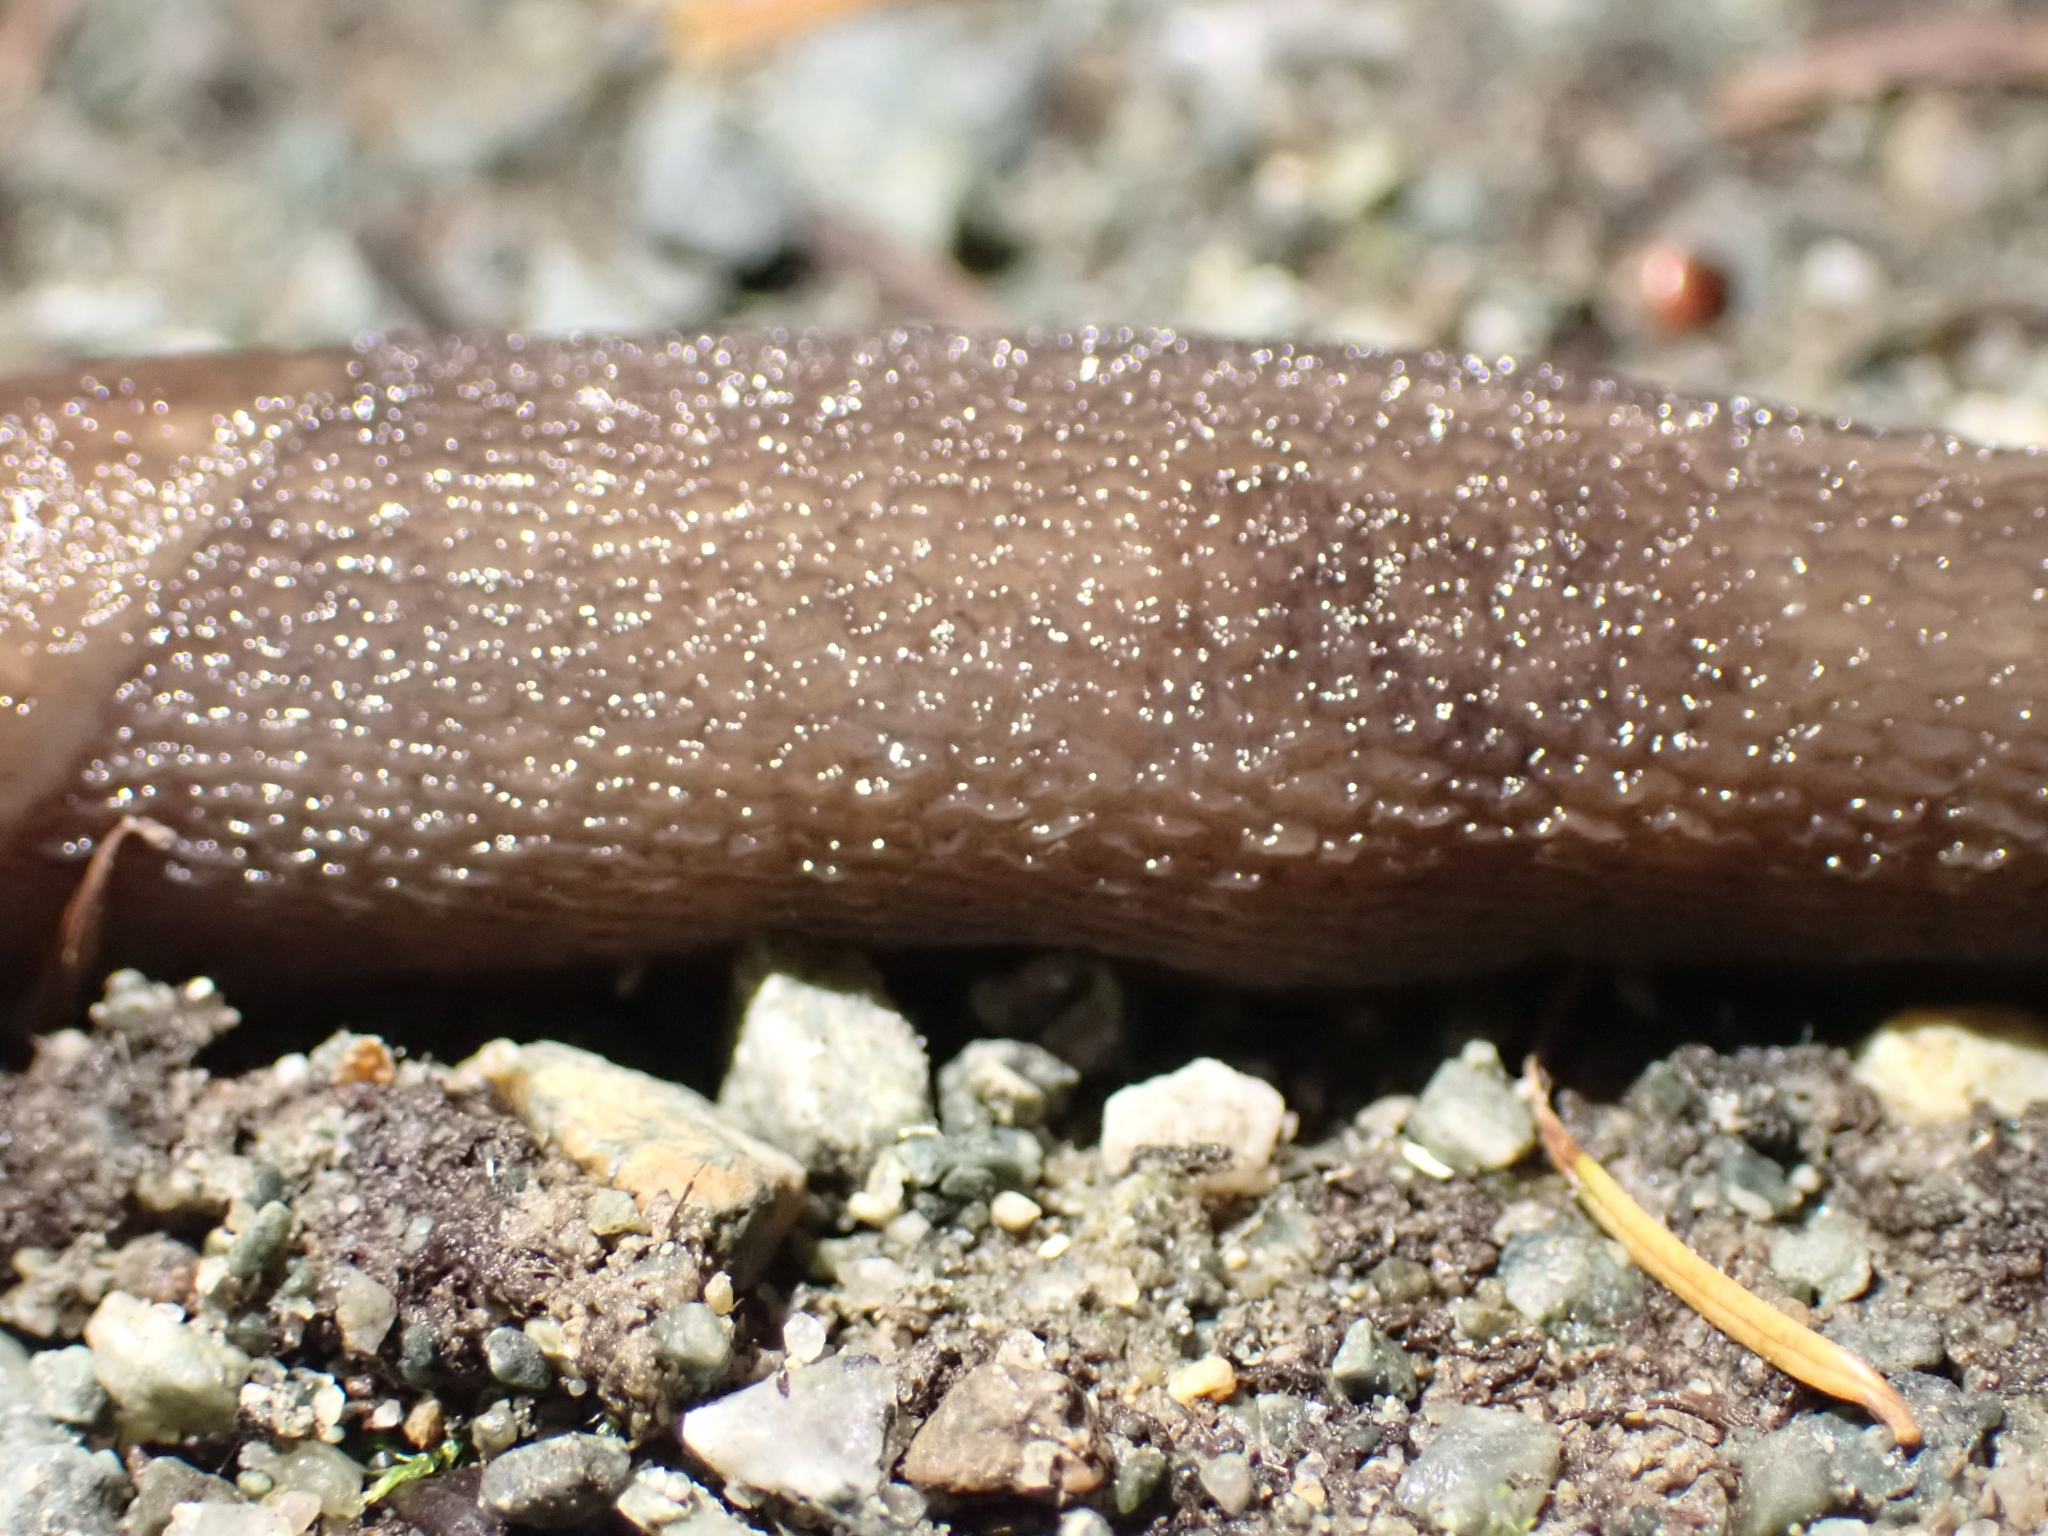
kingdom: Animalia
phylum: Mollusca
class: Gastropoda
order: Stylommatophora
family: Limacidae
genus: Limax
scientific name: Limax maximus
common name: Great grey slug
